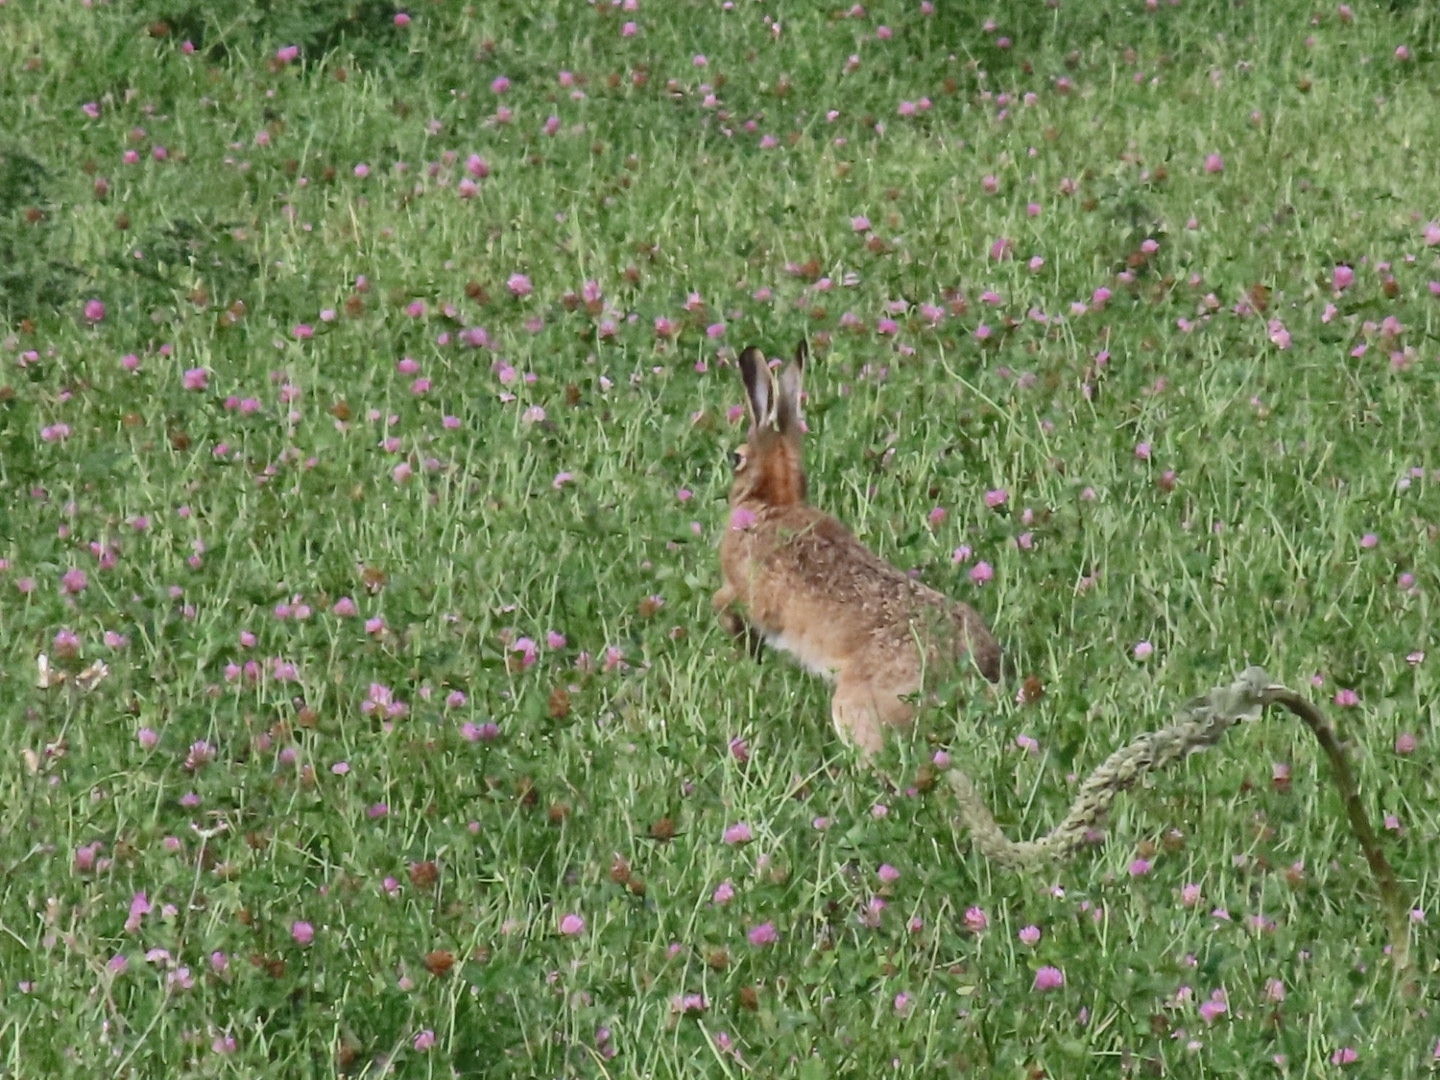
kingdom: Animalia
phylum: Chordata
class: Mammalia
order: Lagomorpha
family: Leporidae
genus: Lepus
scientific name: Lepus europaeus
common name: European hare
